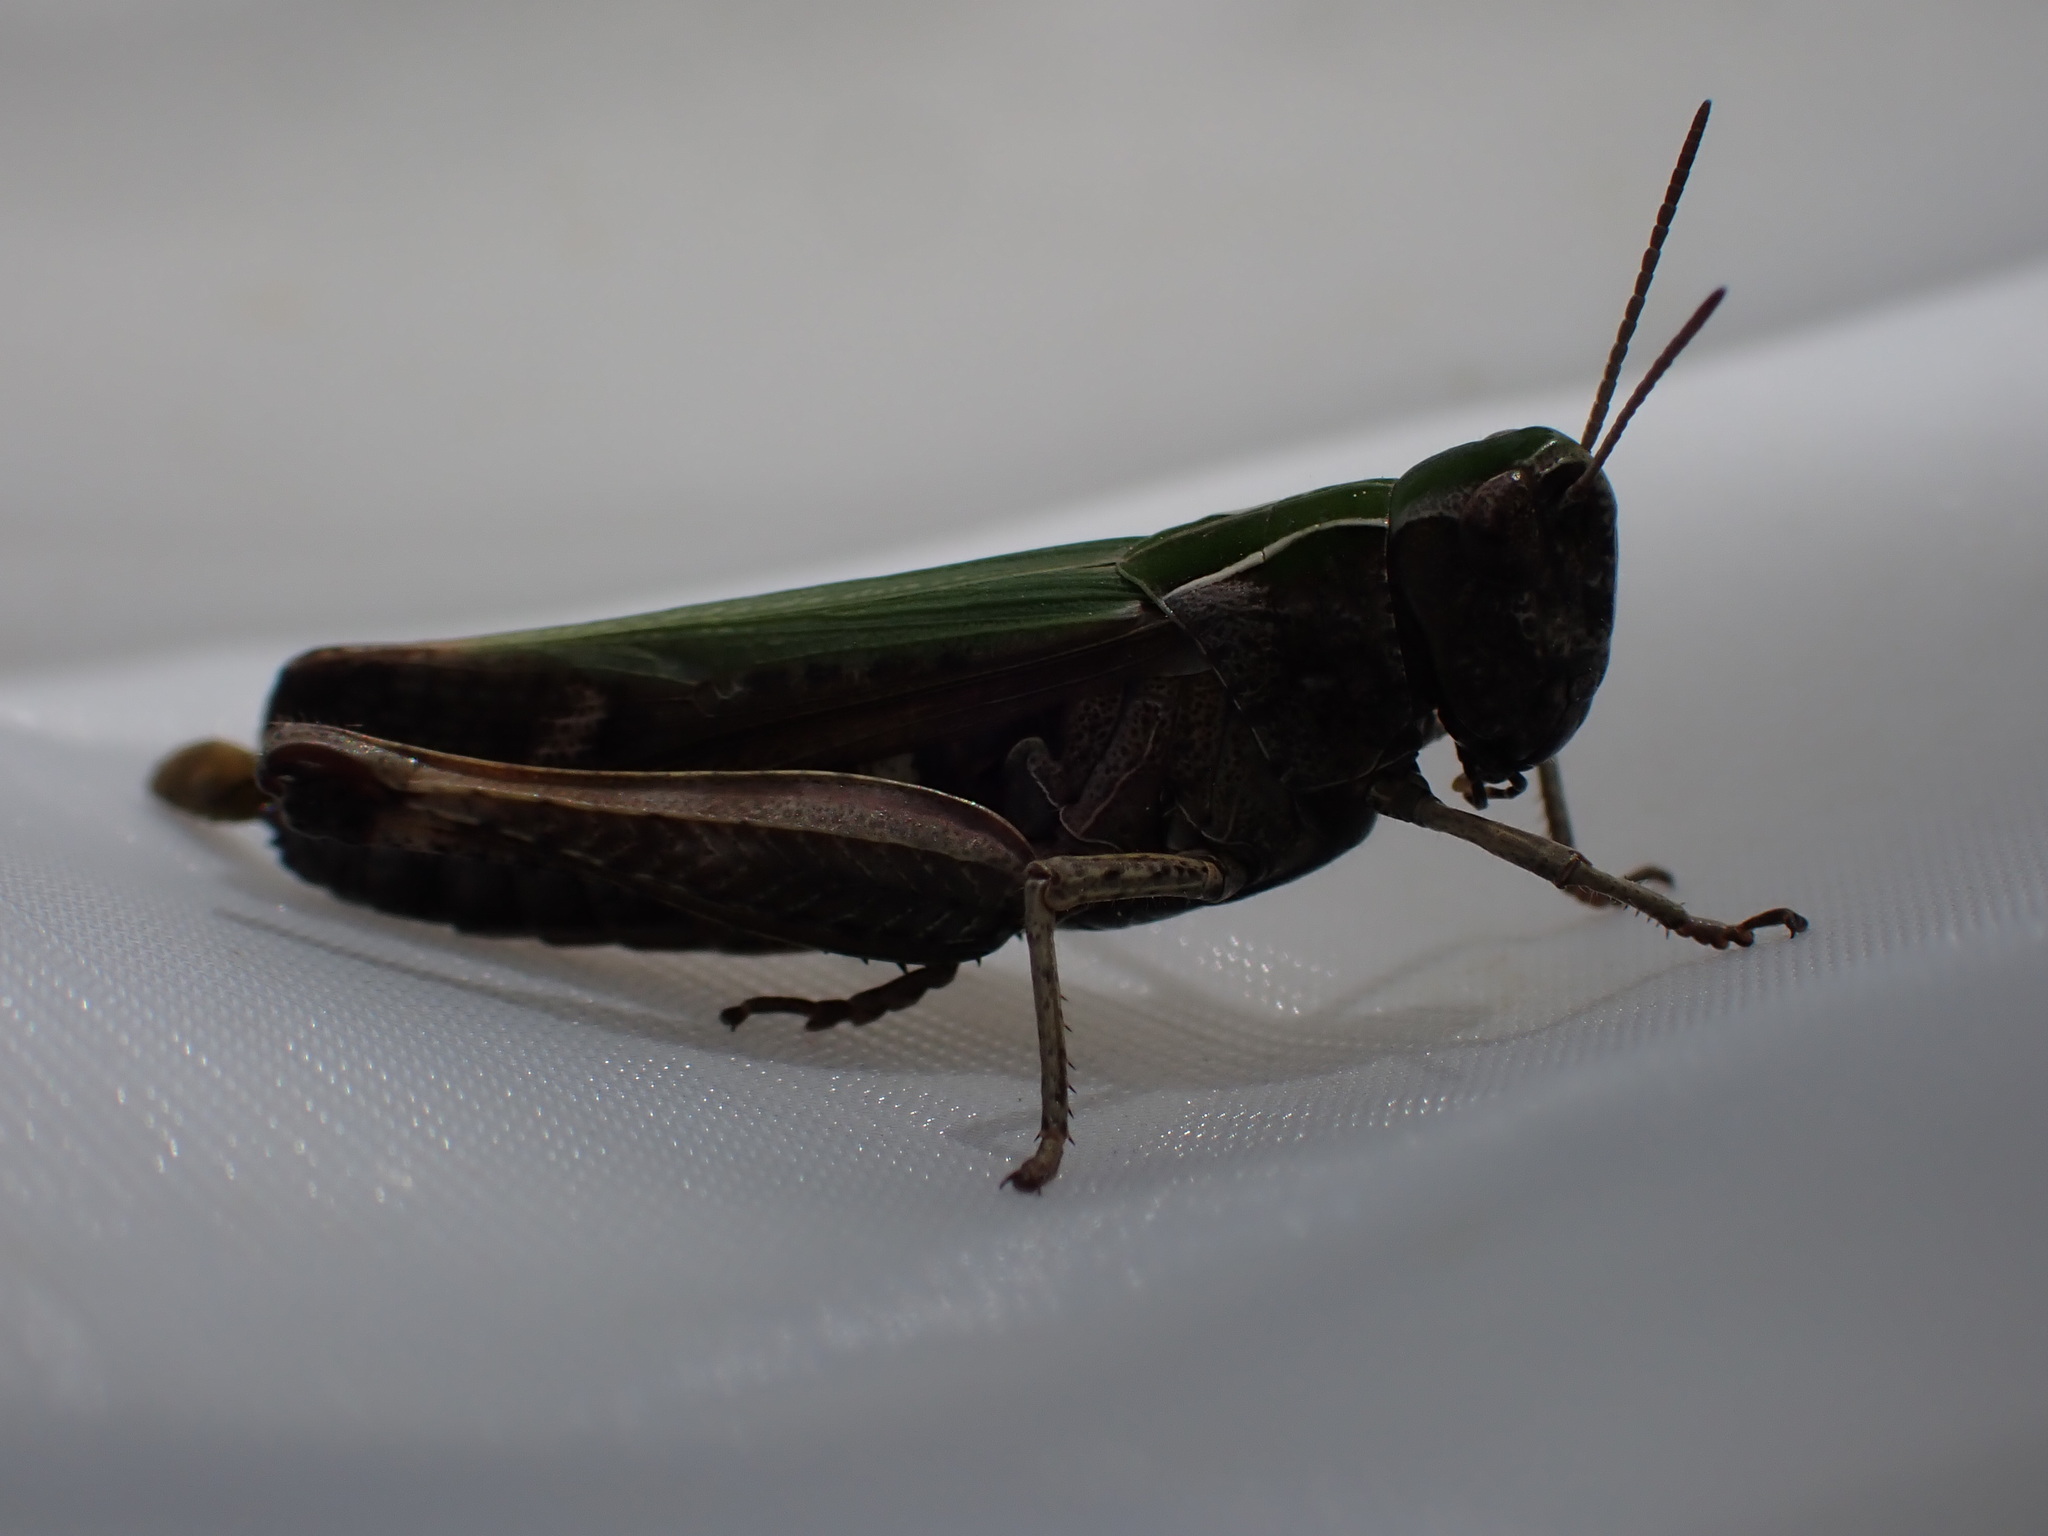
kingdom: Animalia
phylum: Arthropoda
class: Insecta
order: Orthoptera
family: Acrididae
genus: Omocestus
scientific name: Omocestus rufipes
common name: Woodland grasshopper
